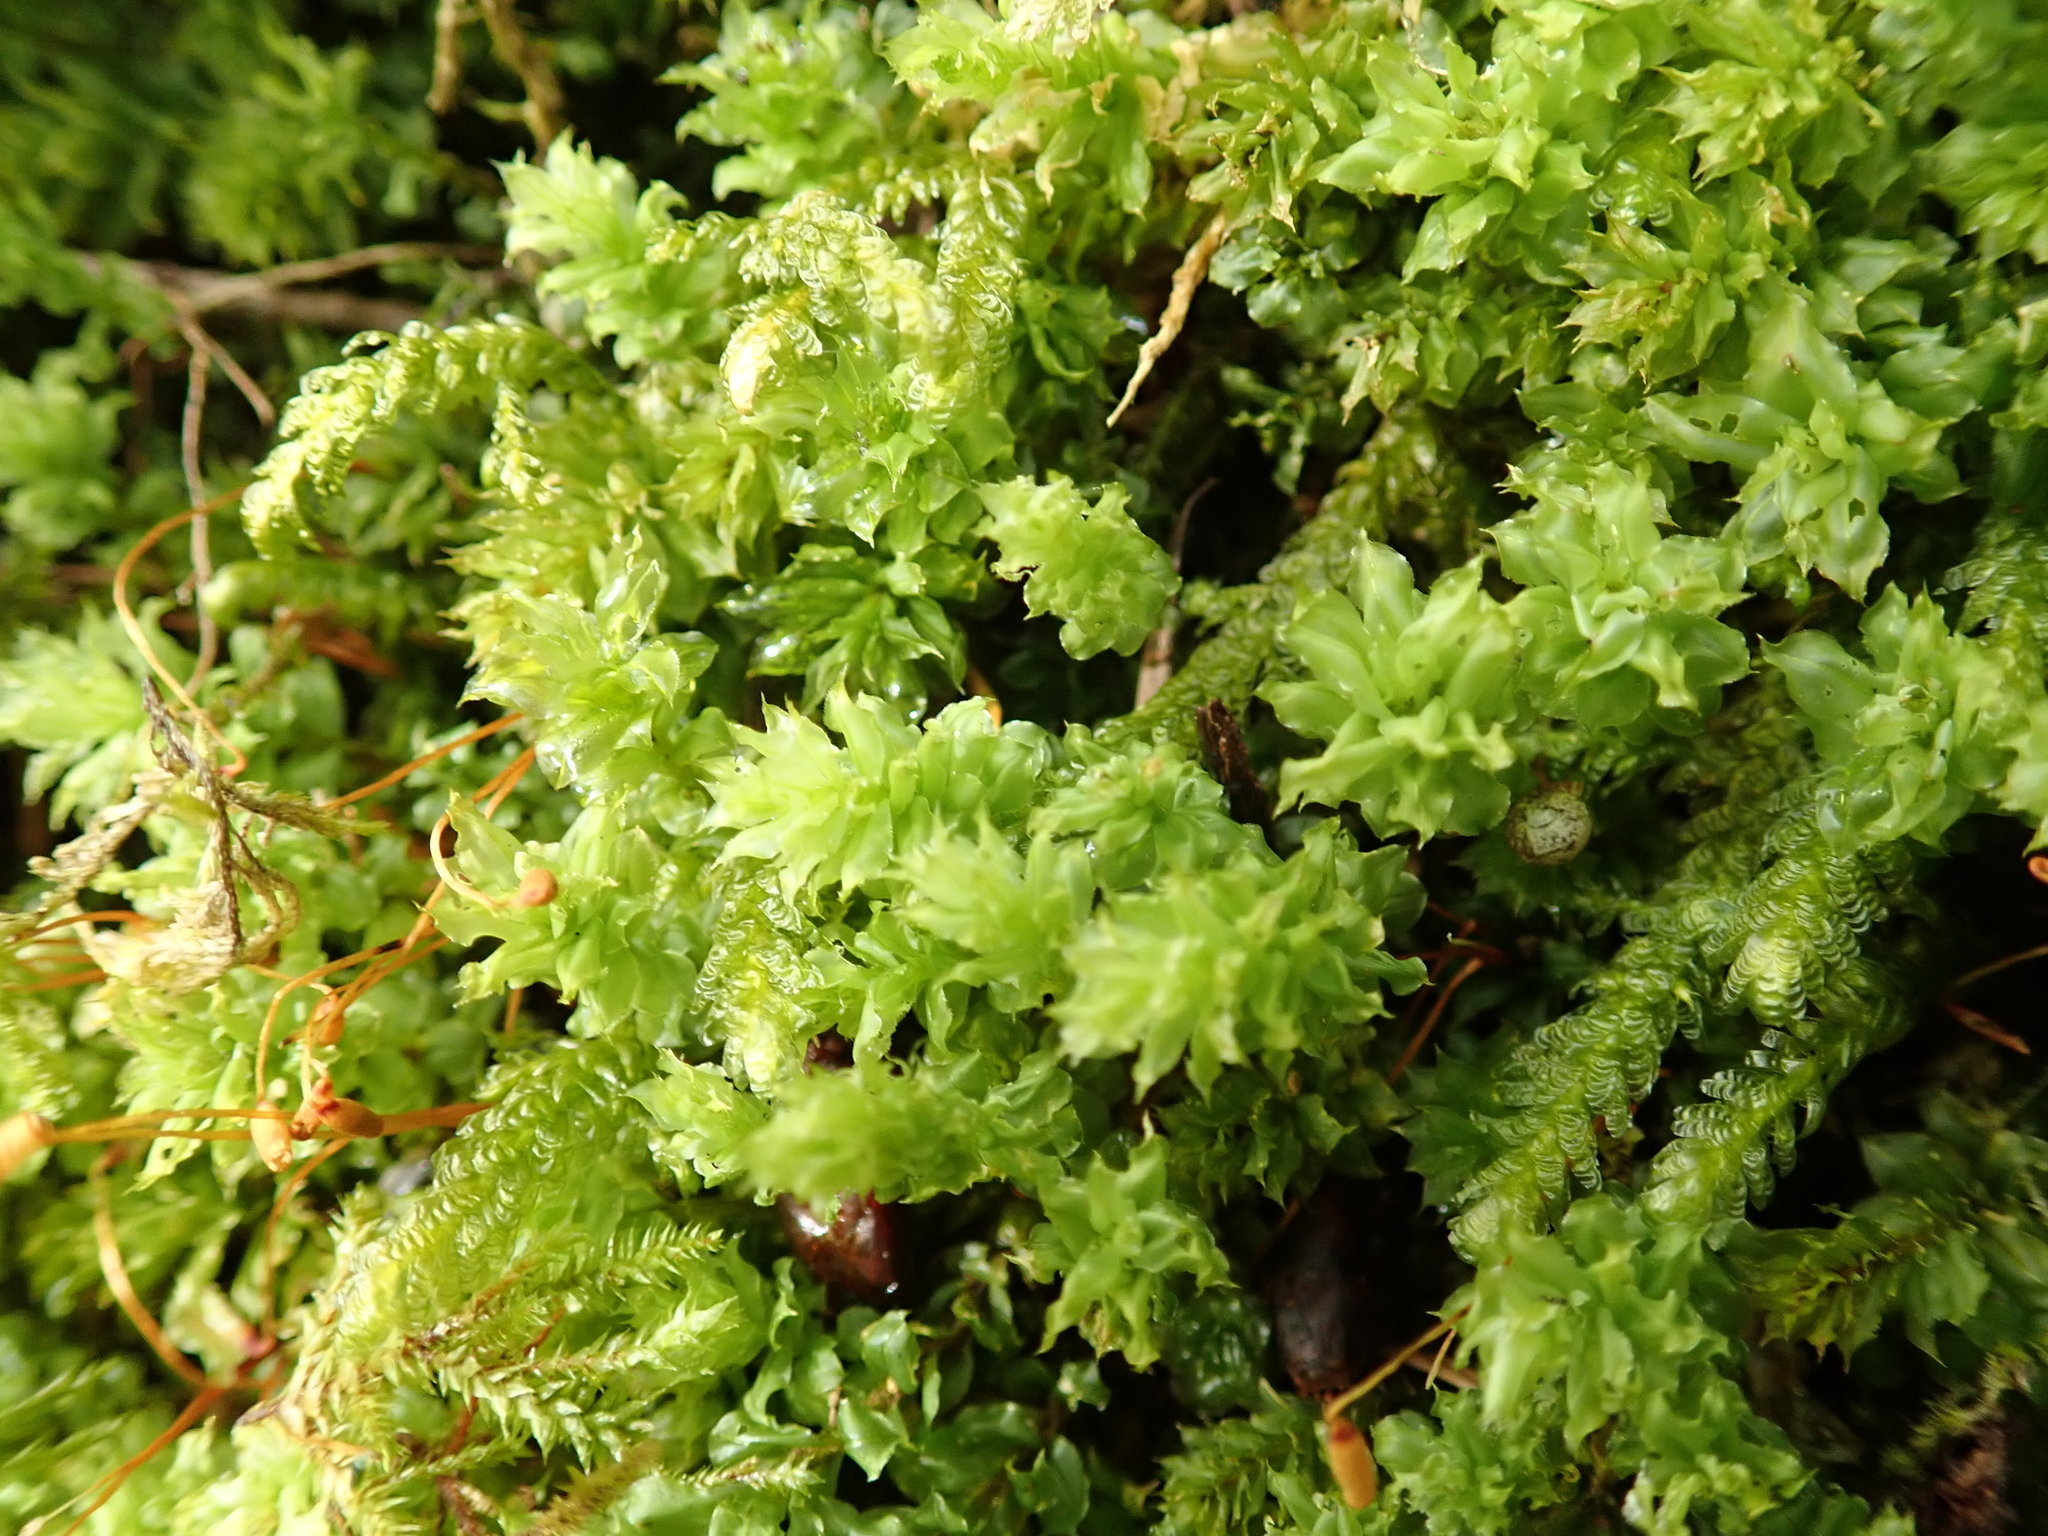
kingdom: Plantae
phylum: Bryophyta
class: Bryopsida
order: Bryales
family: Mniaceae
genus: Plagiomnium
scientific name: Plagiomnium venustum
